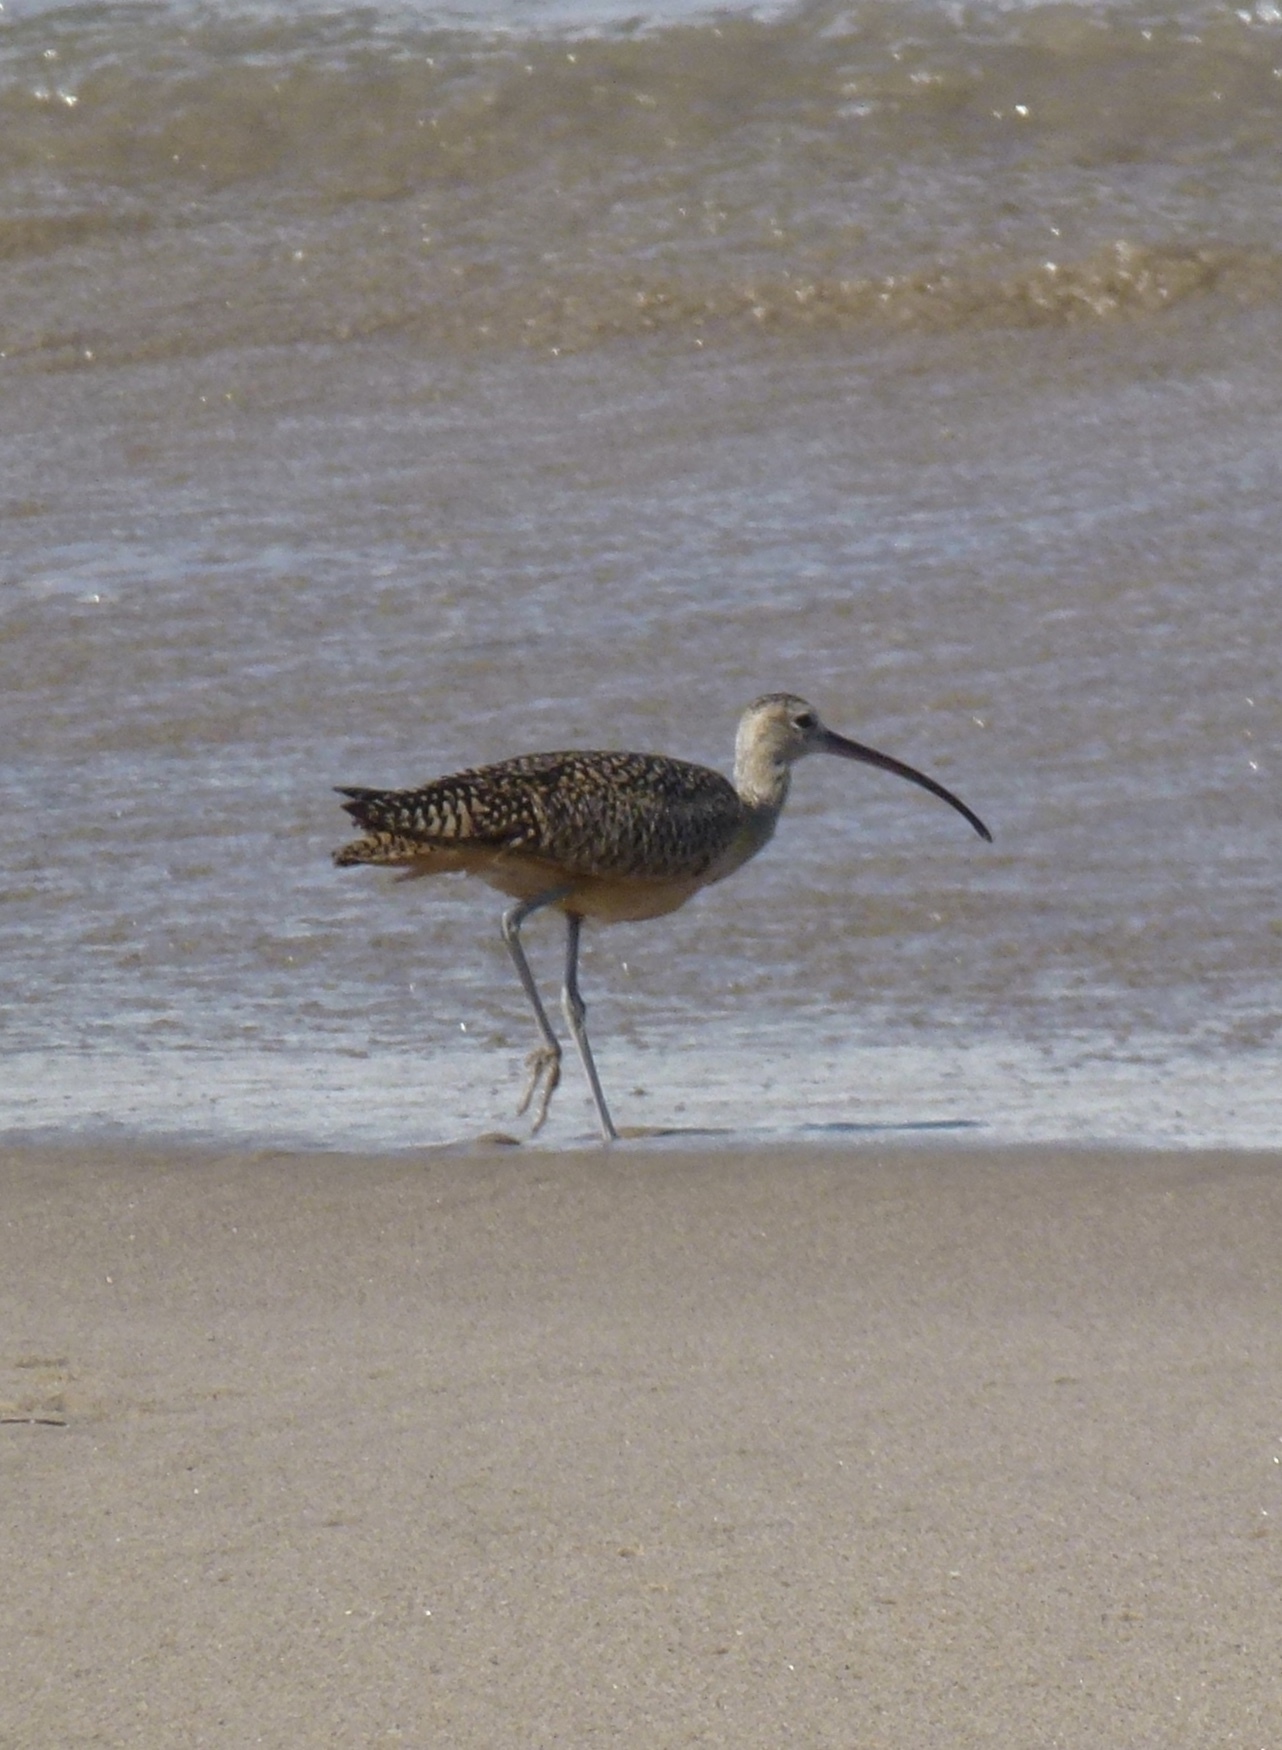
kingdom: Animalia
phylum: Chordata
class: Aves
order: Charadriiformes
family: Scolopacidae
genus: Numenius
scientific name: Numenius americanus
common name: Long-billed curlew
